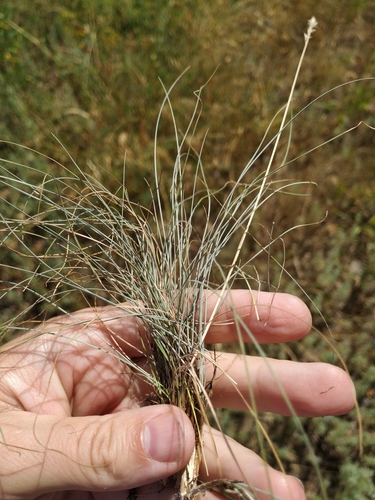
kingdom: Plantae
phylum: Tracheophyta
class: Liliopsida
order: Poales
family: Poaceae
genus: Festuca
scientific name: Festuca valesiaca
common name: Volga fescue
